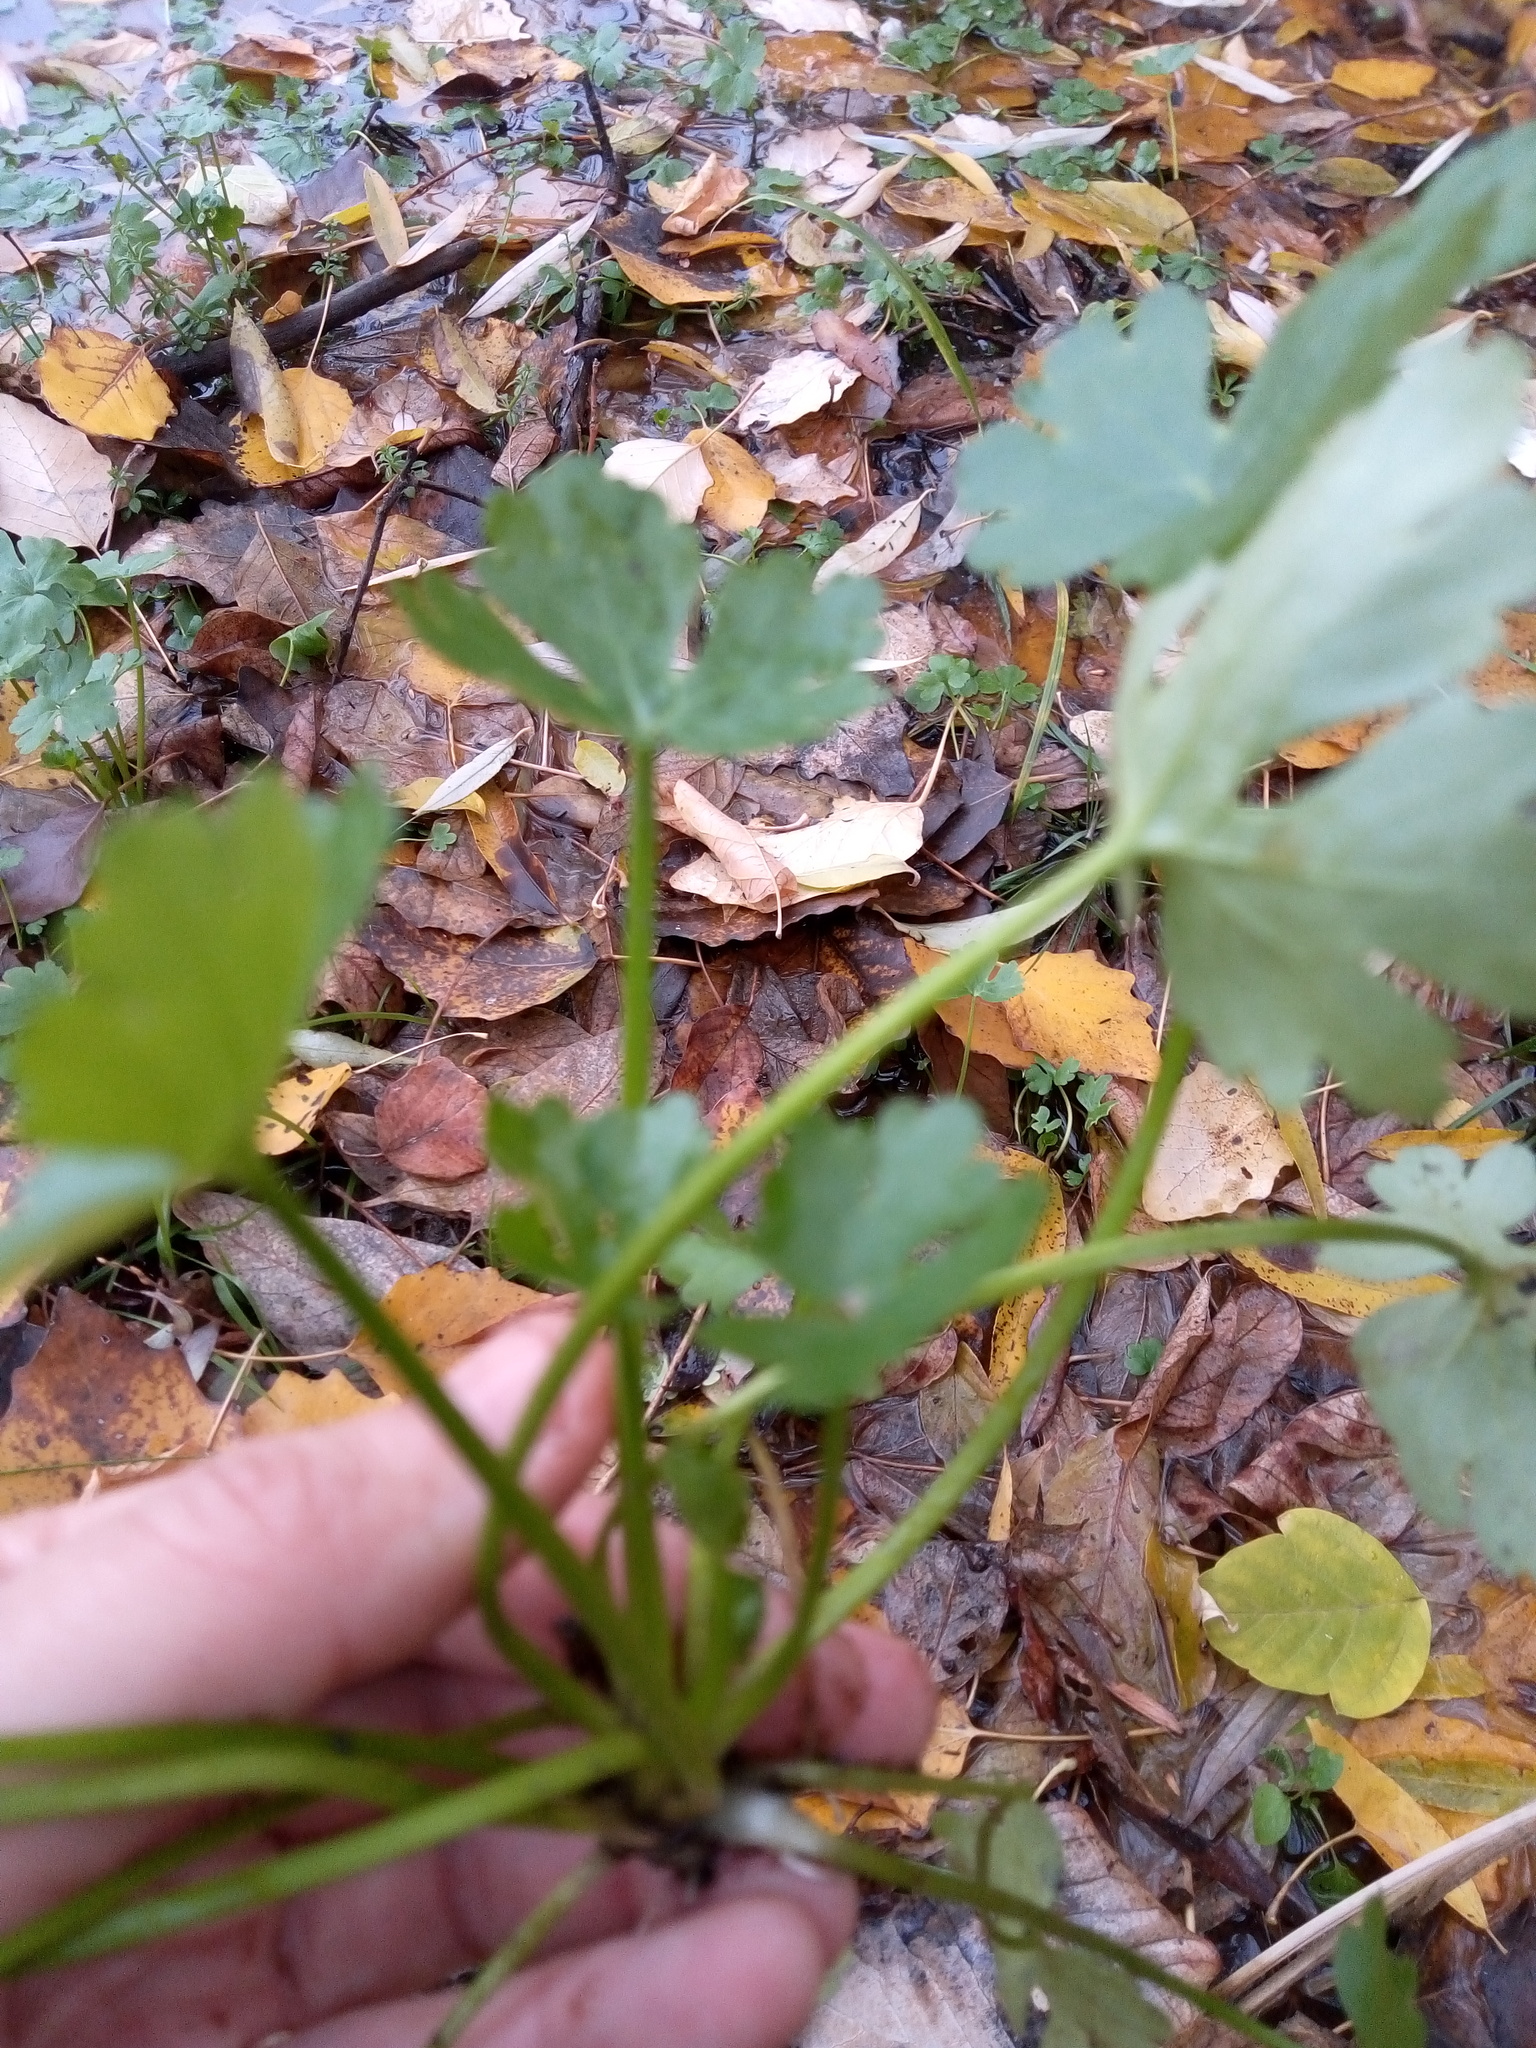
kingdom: Plantae
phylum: Tracheophyta
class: Magnoliopsida
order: Ranunculales
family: Ranunculaceae
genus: Ranunculus
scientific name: Ranunculus sceleratus
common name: Celery-leaved buttercup
